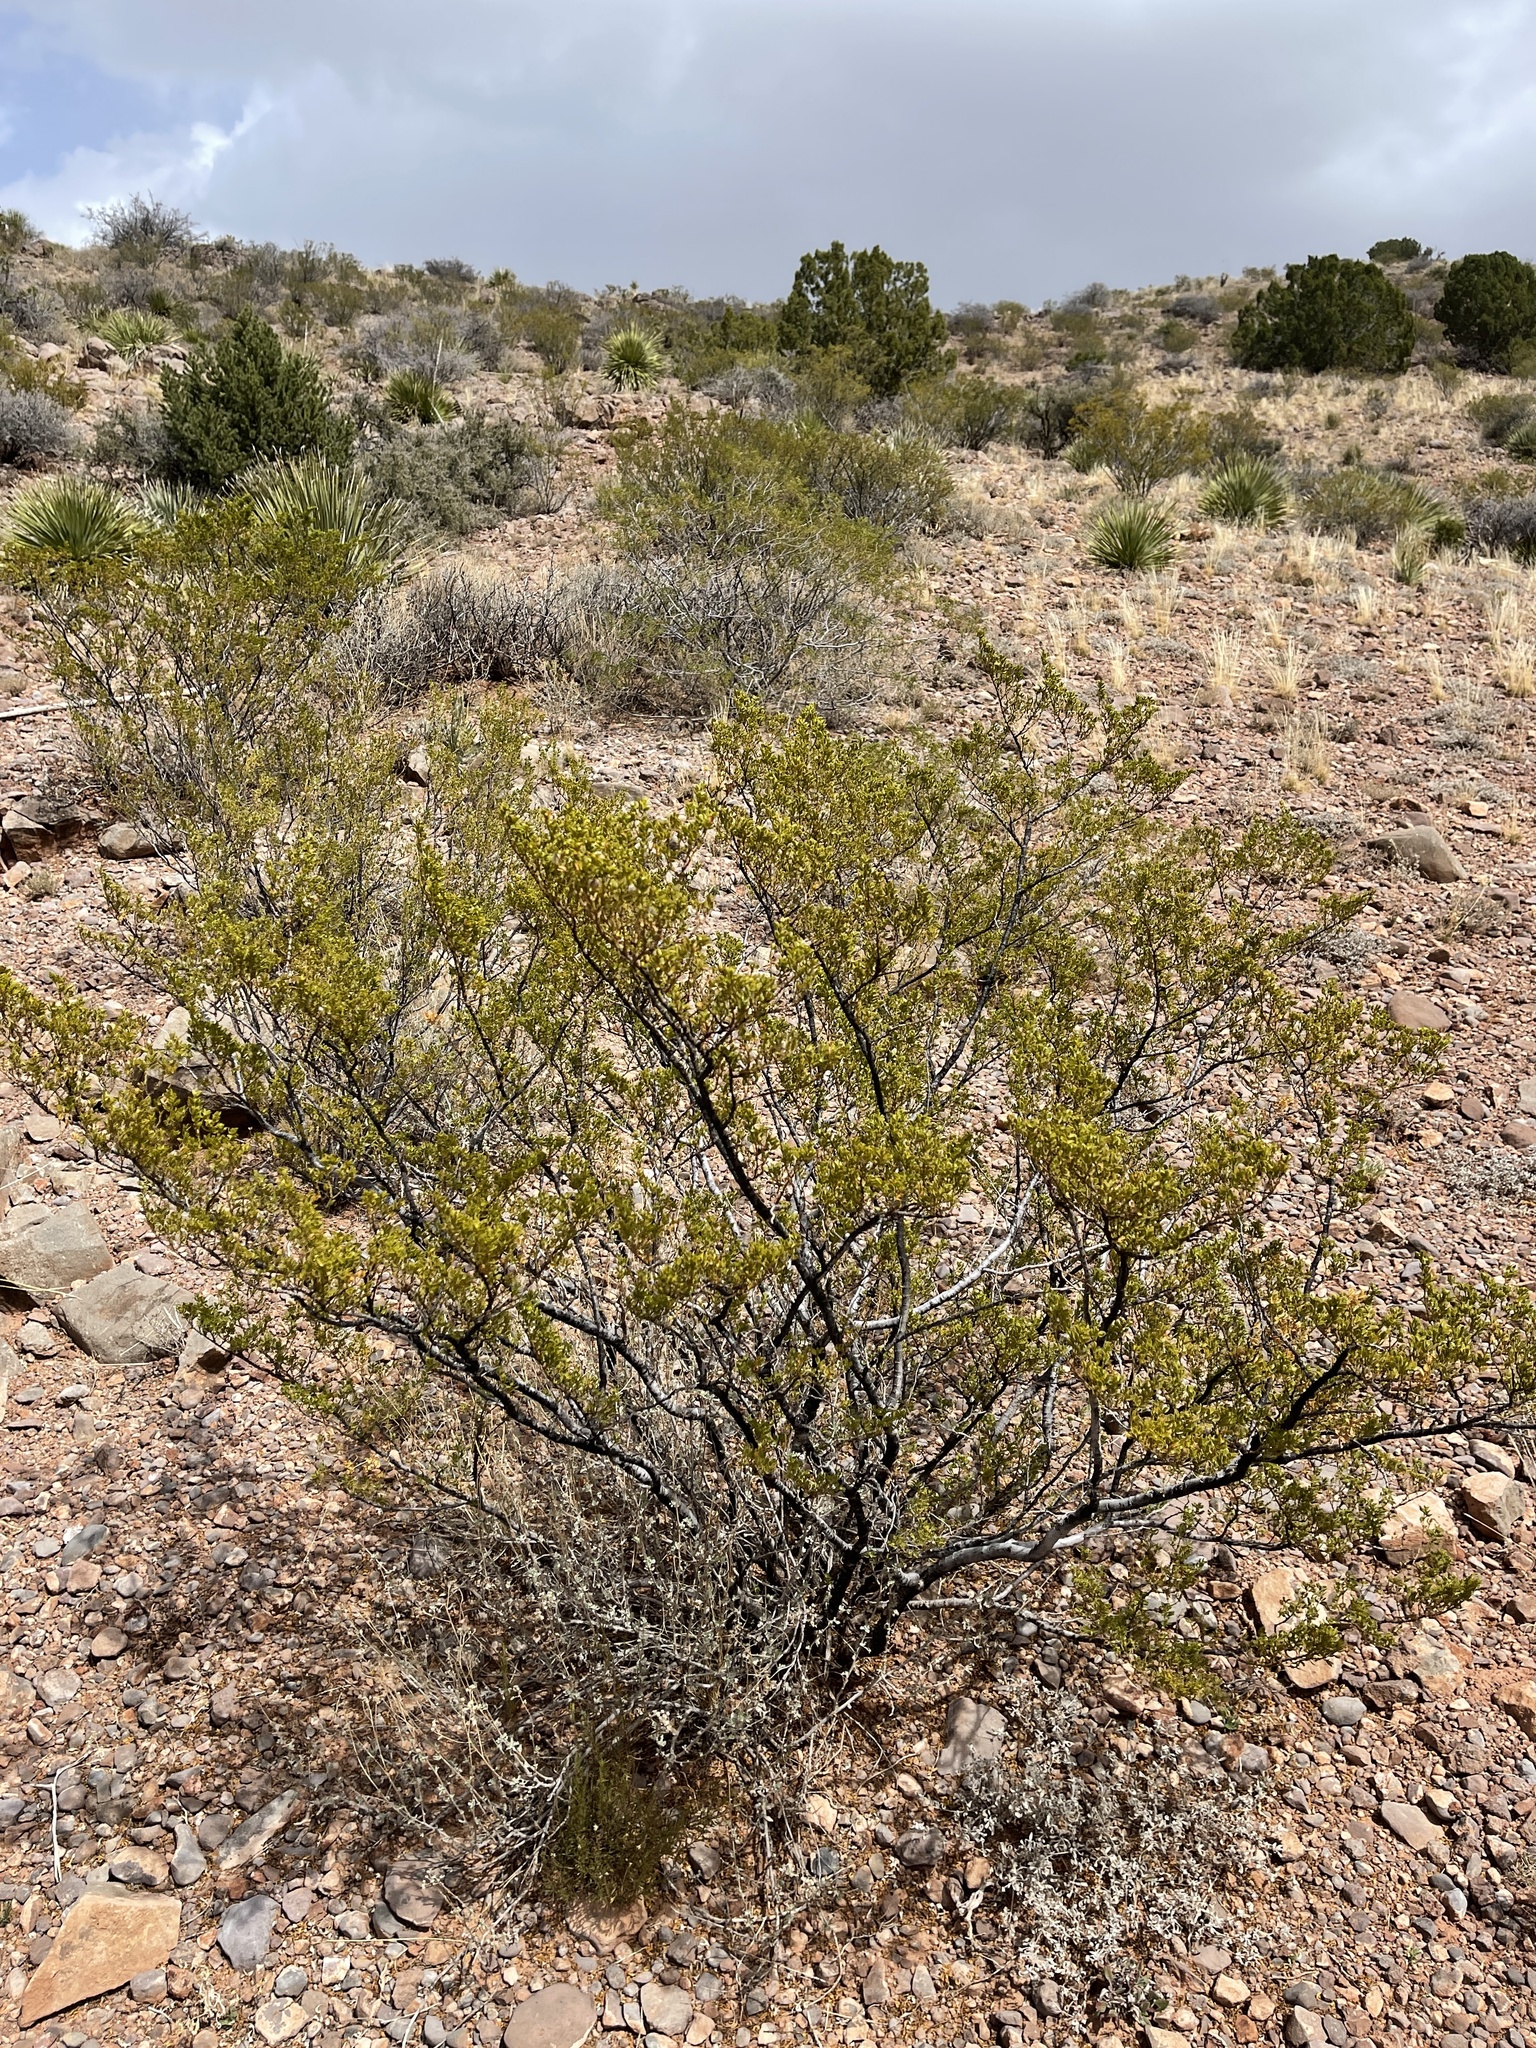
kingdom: Plantae
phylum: Tracheophyta
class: Magnoliopsida
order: Zygophyllales
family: Zygophyllaceae
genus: Larrea
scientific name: Larrea tridentata
